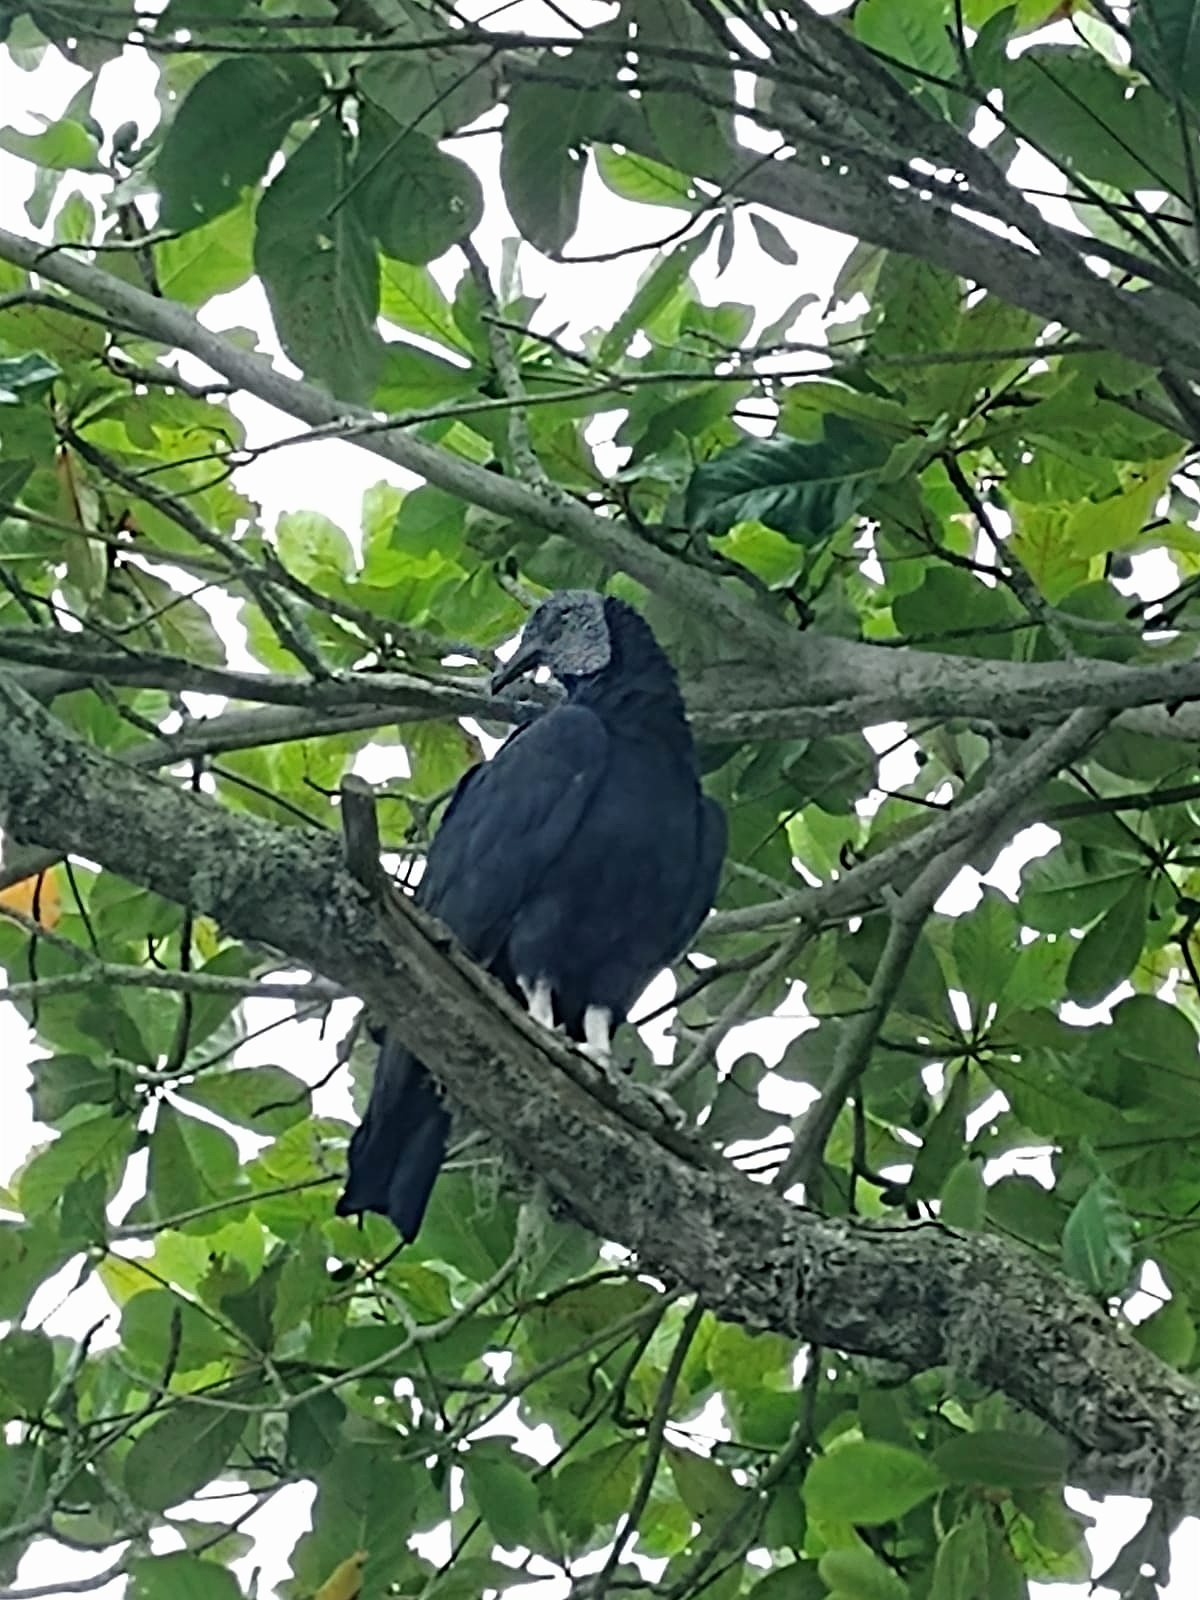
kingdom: Animalia
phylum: Chordata
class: Aves
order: Accipitriformes
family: Cathartidae
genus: Coragyps
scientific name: Coragyps atratus
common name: Black vulture
